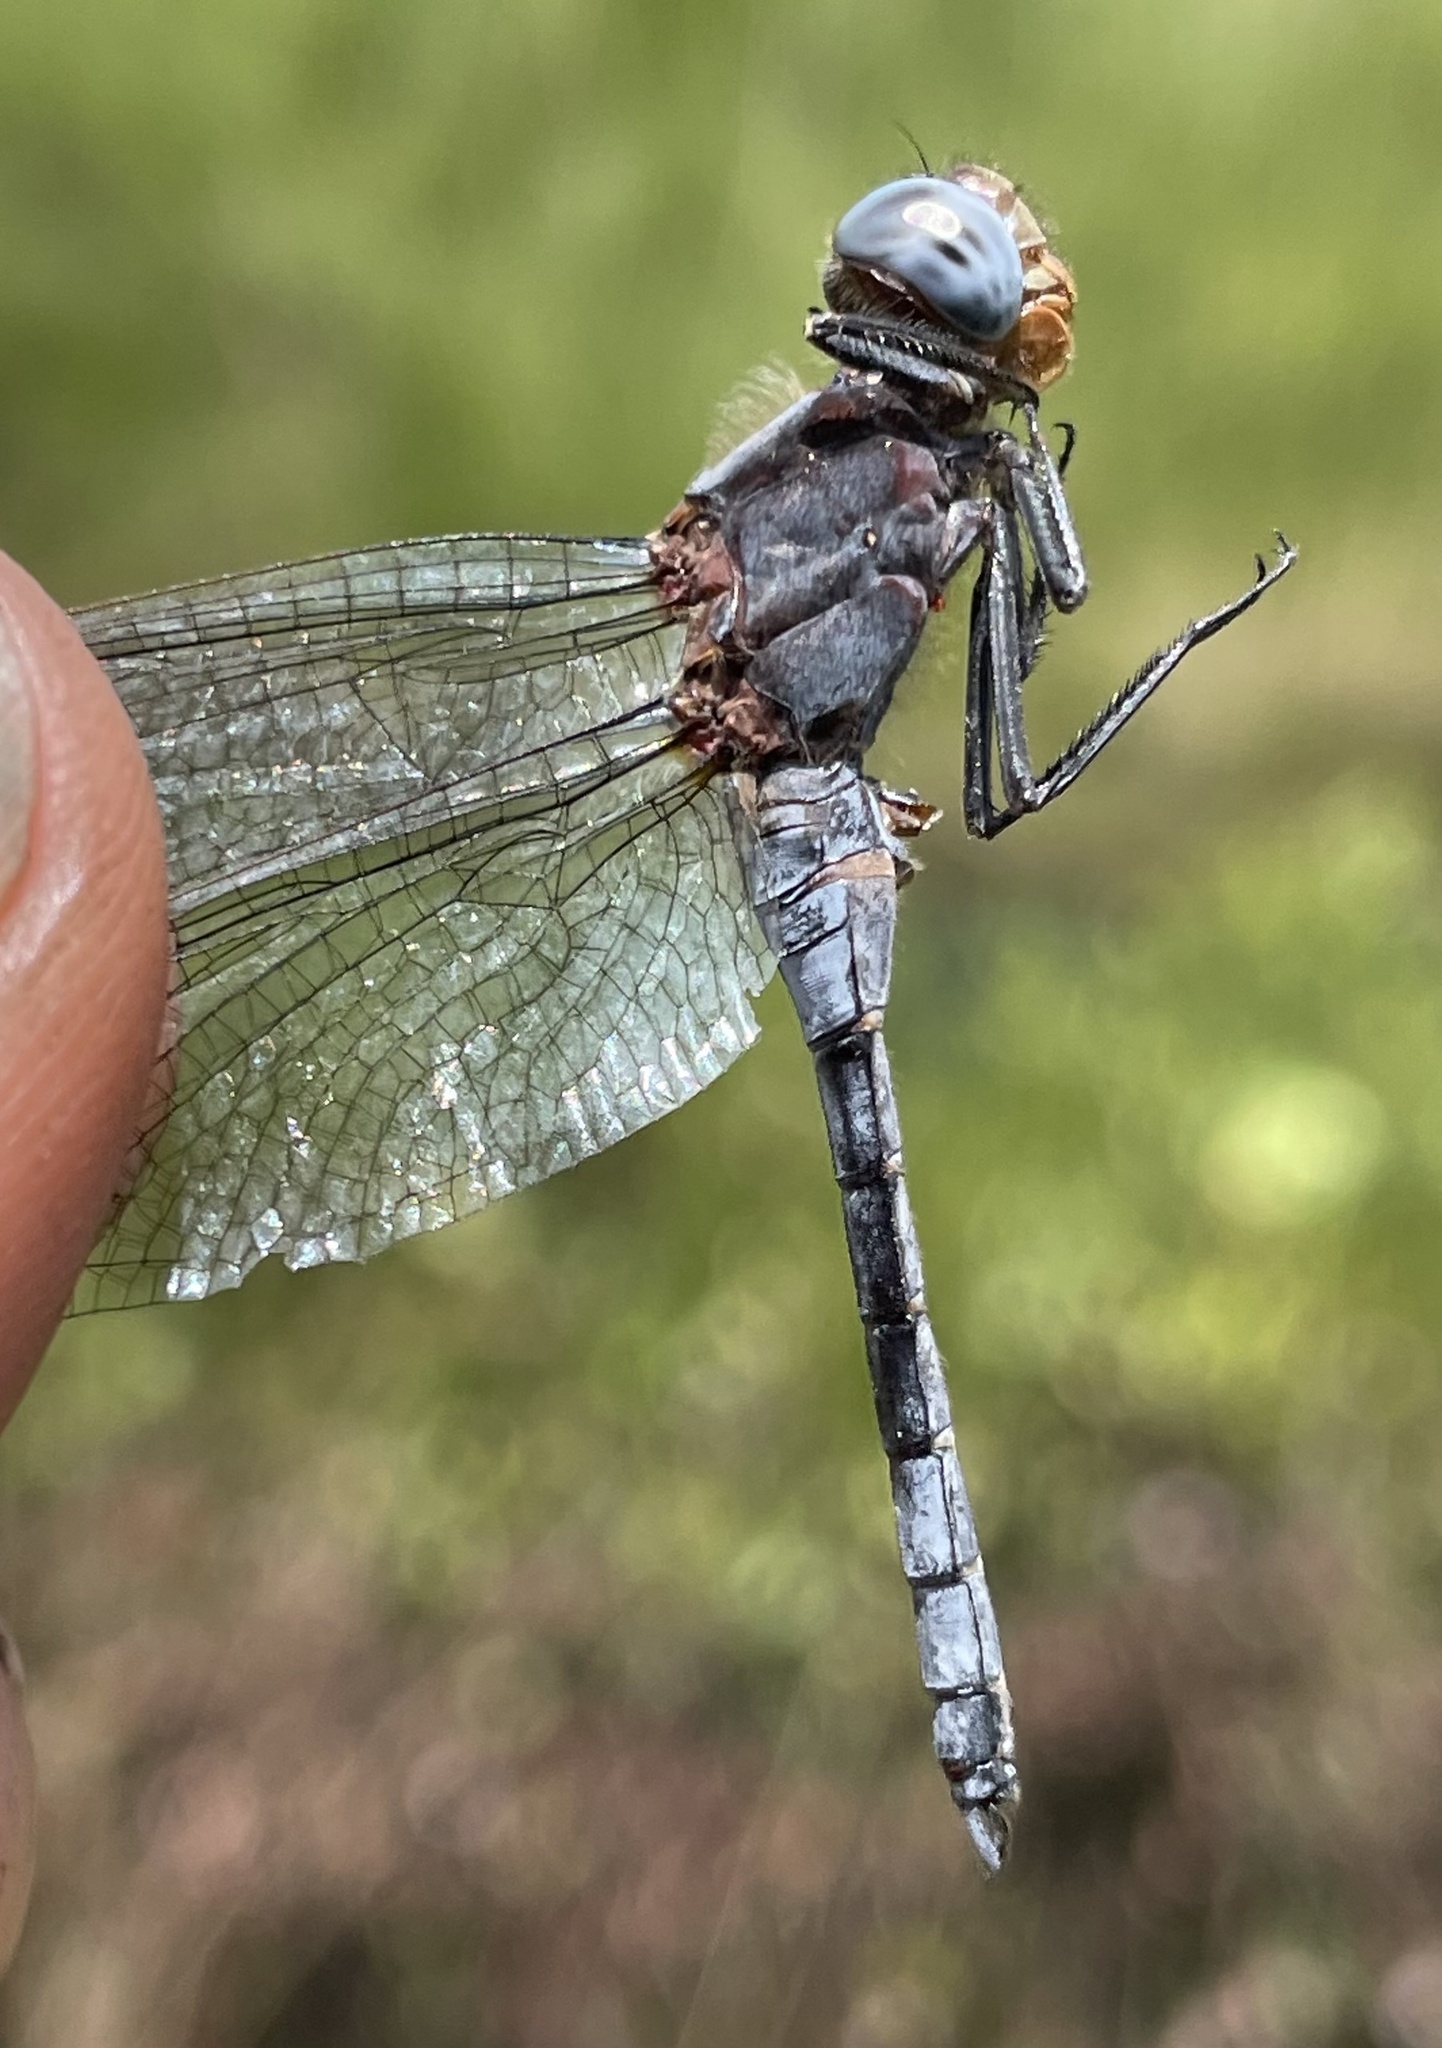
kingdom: Animalia
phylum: Arthropoda
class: Insecta
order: Odonata
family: Libellulidae
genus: Aethiothemis
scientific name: Aethiothemis ellioti
